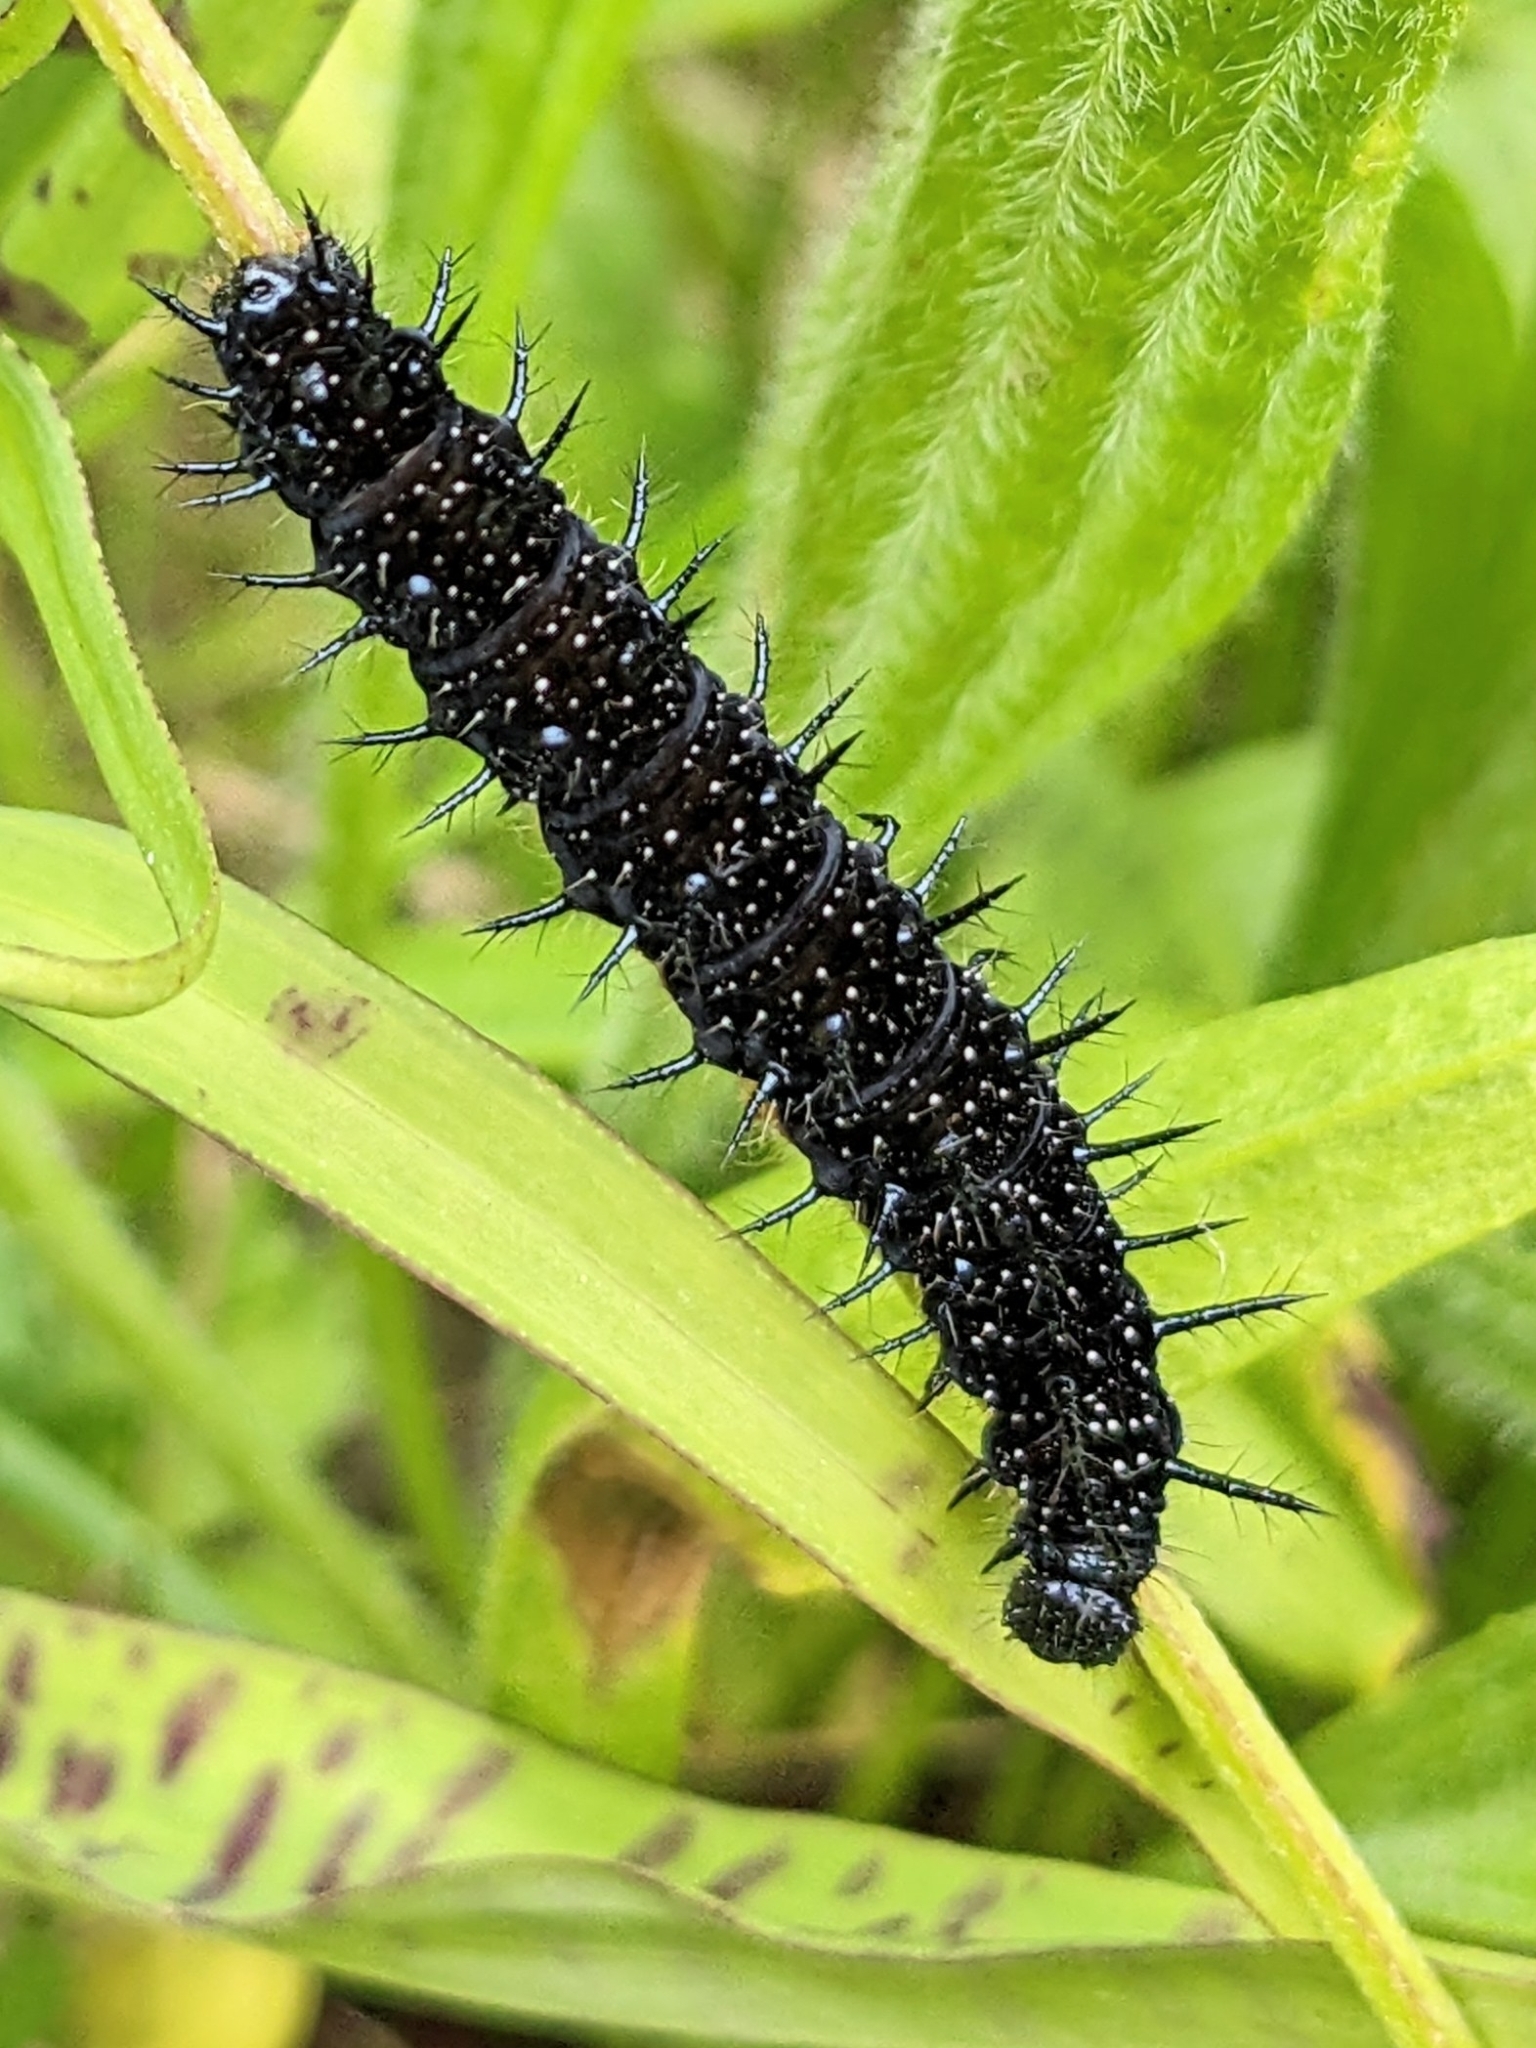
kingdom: Animalia
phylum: Arthropoda
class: Insecta
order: Lepidoptera
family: Nymphalidae
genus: Aglais
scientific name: Aglais io
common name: Peacock
